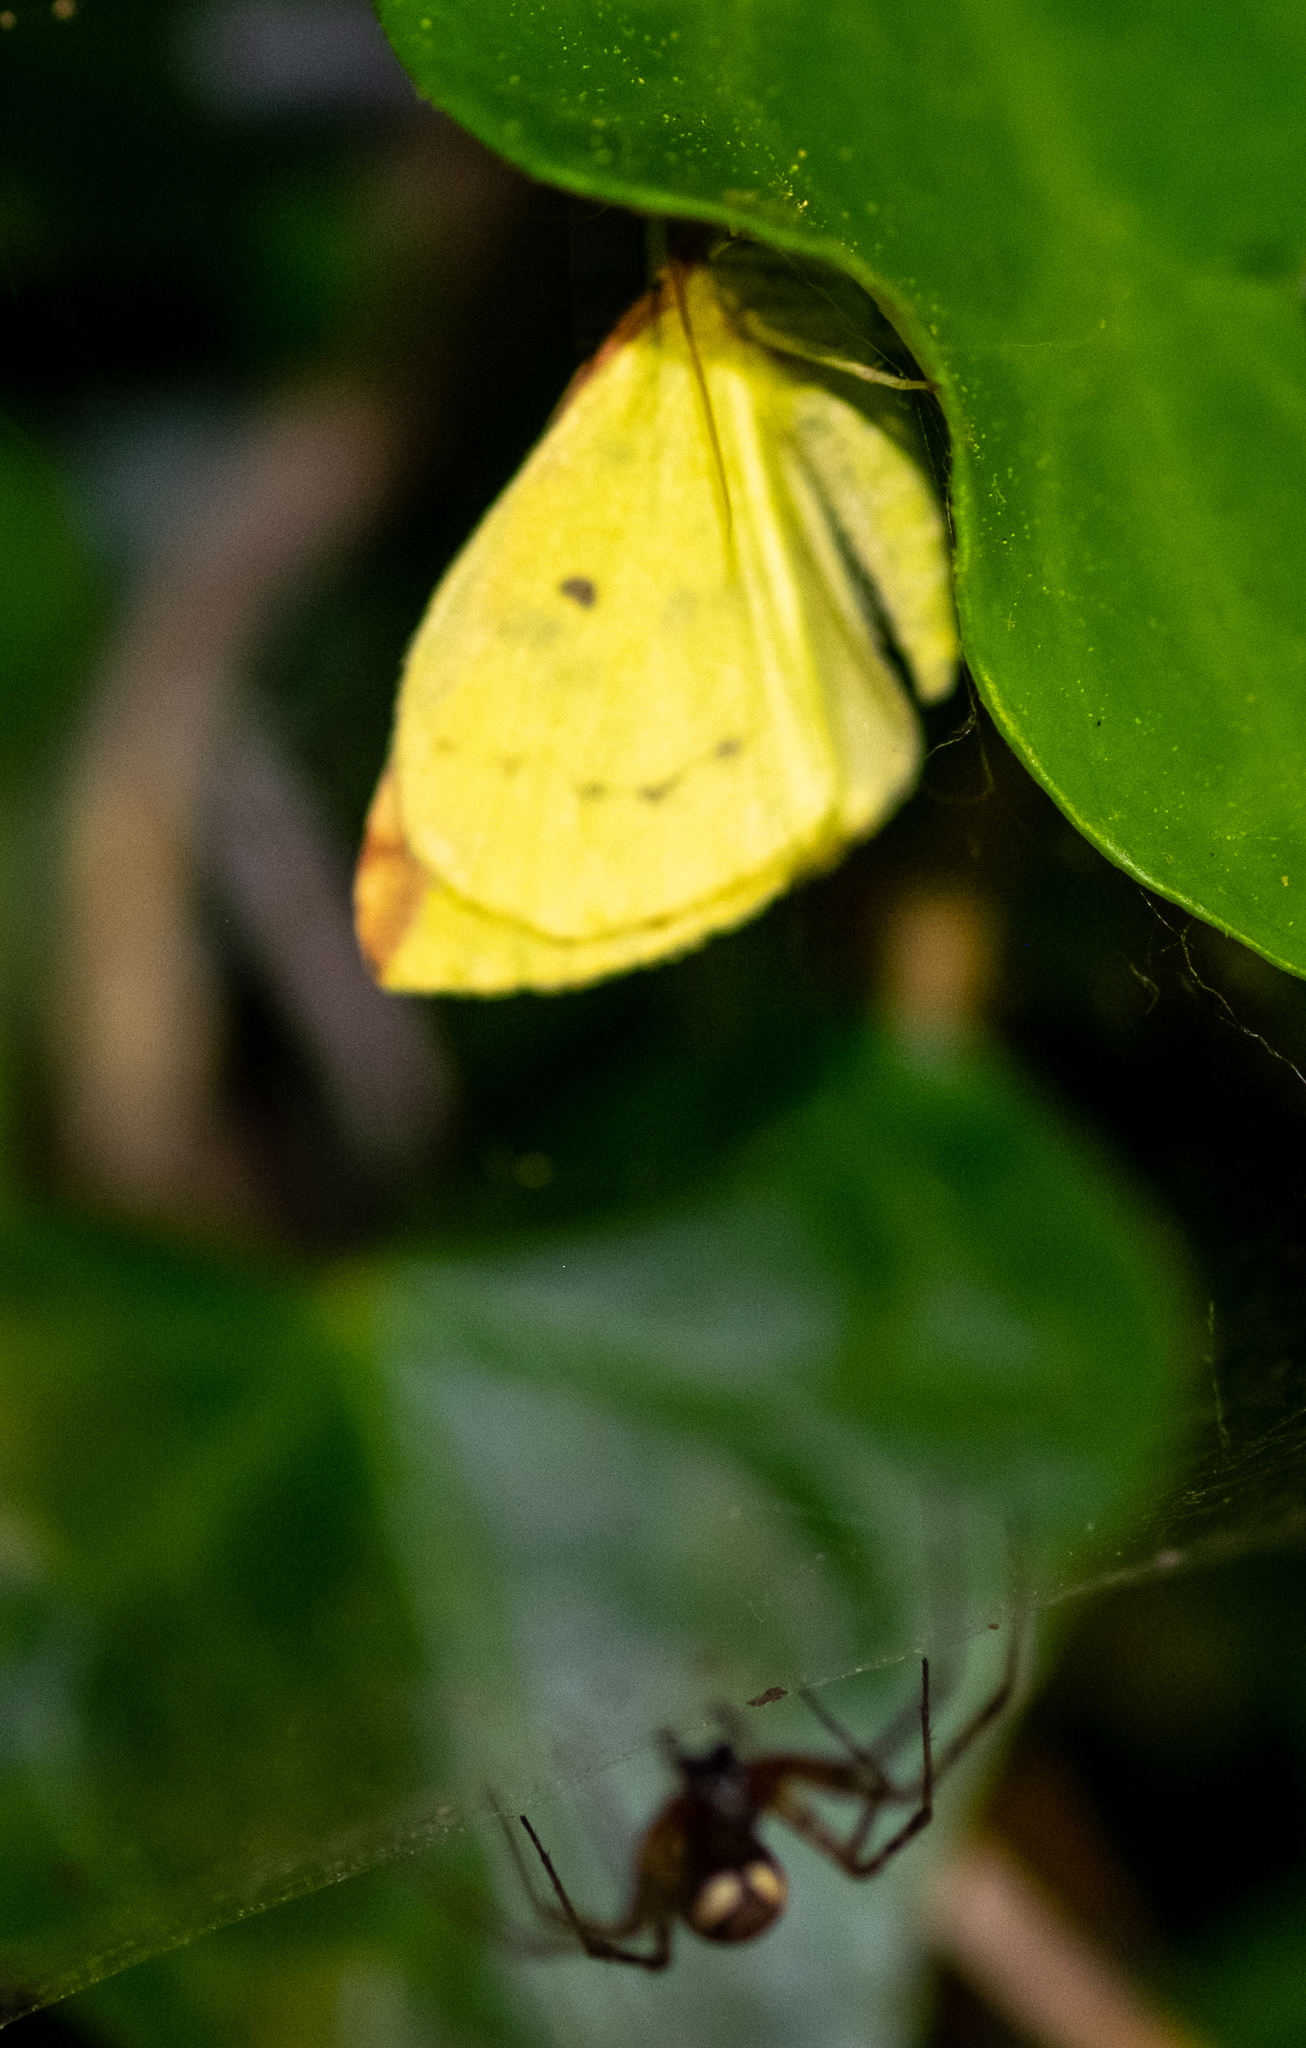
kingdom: Animalia
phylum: Arthropoda
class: Insecta
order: Lepidoptera
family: Geometridae
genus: Opisthograptis
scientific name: Opisthograptis luteolata
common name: Brimstone moth
